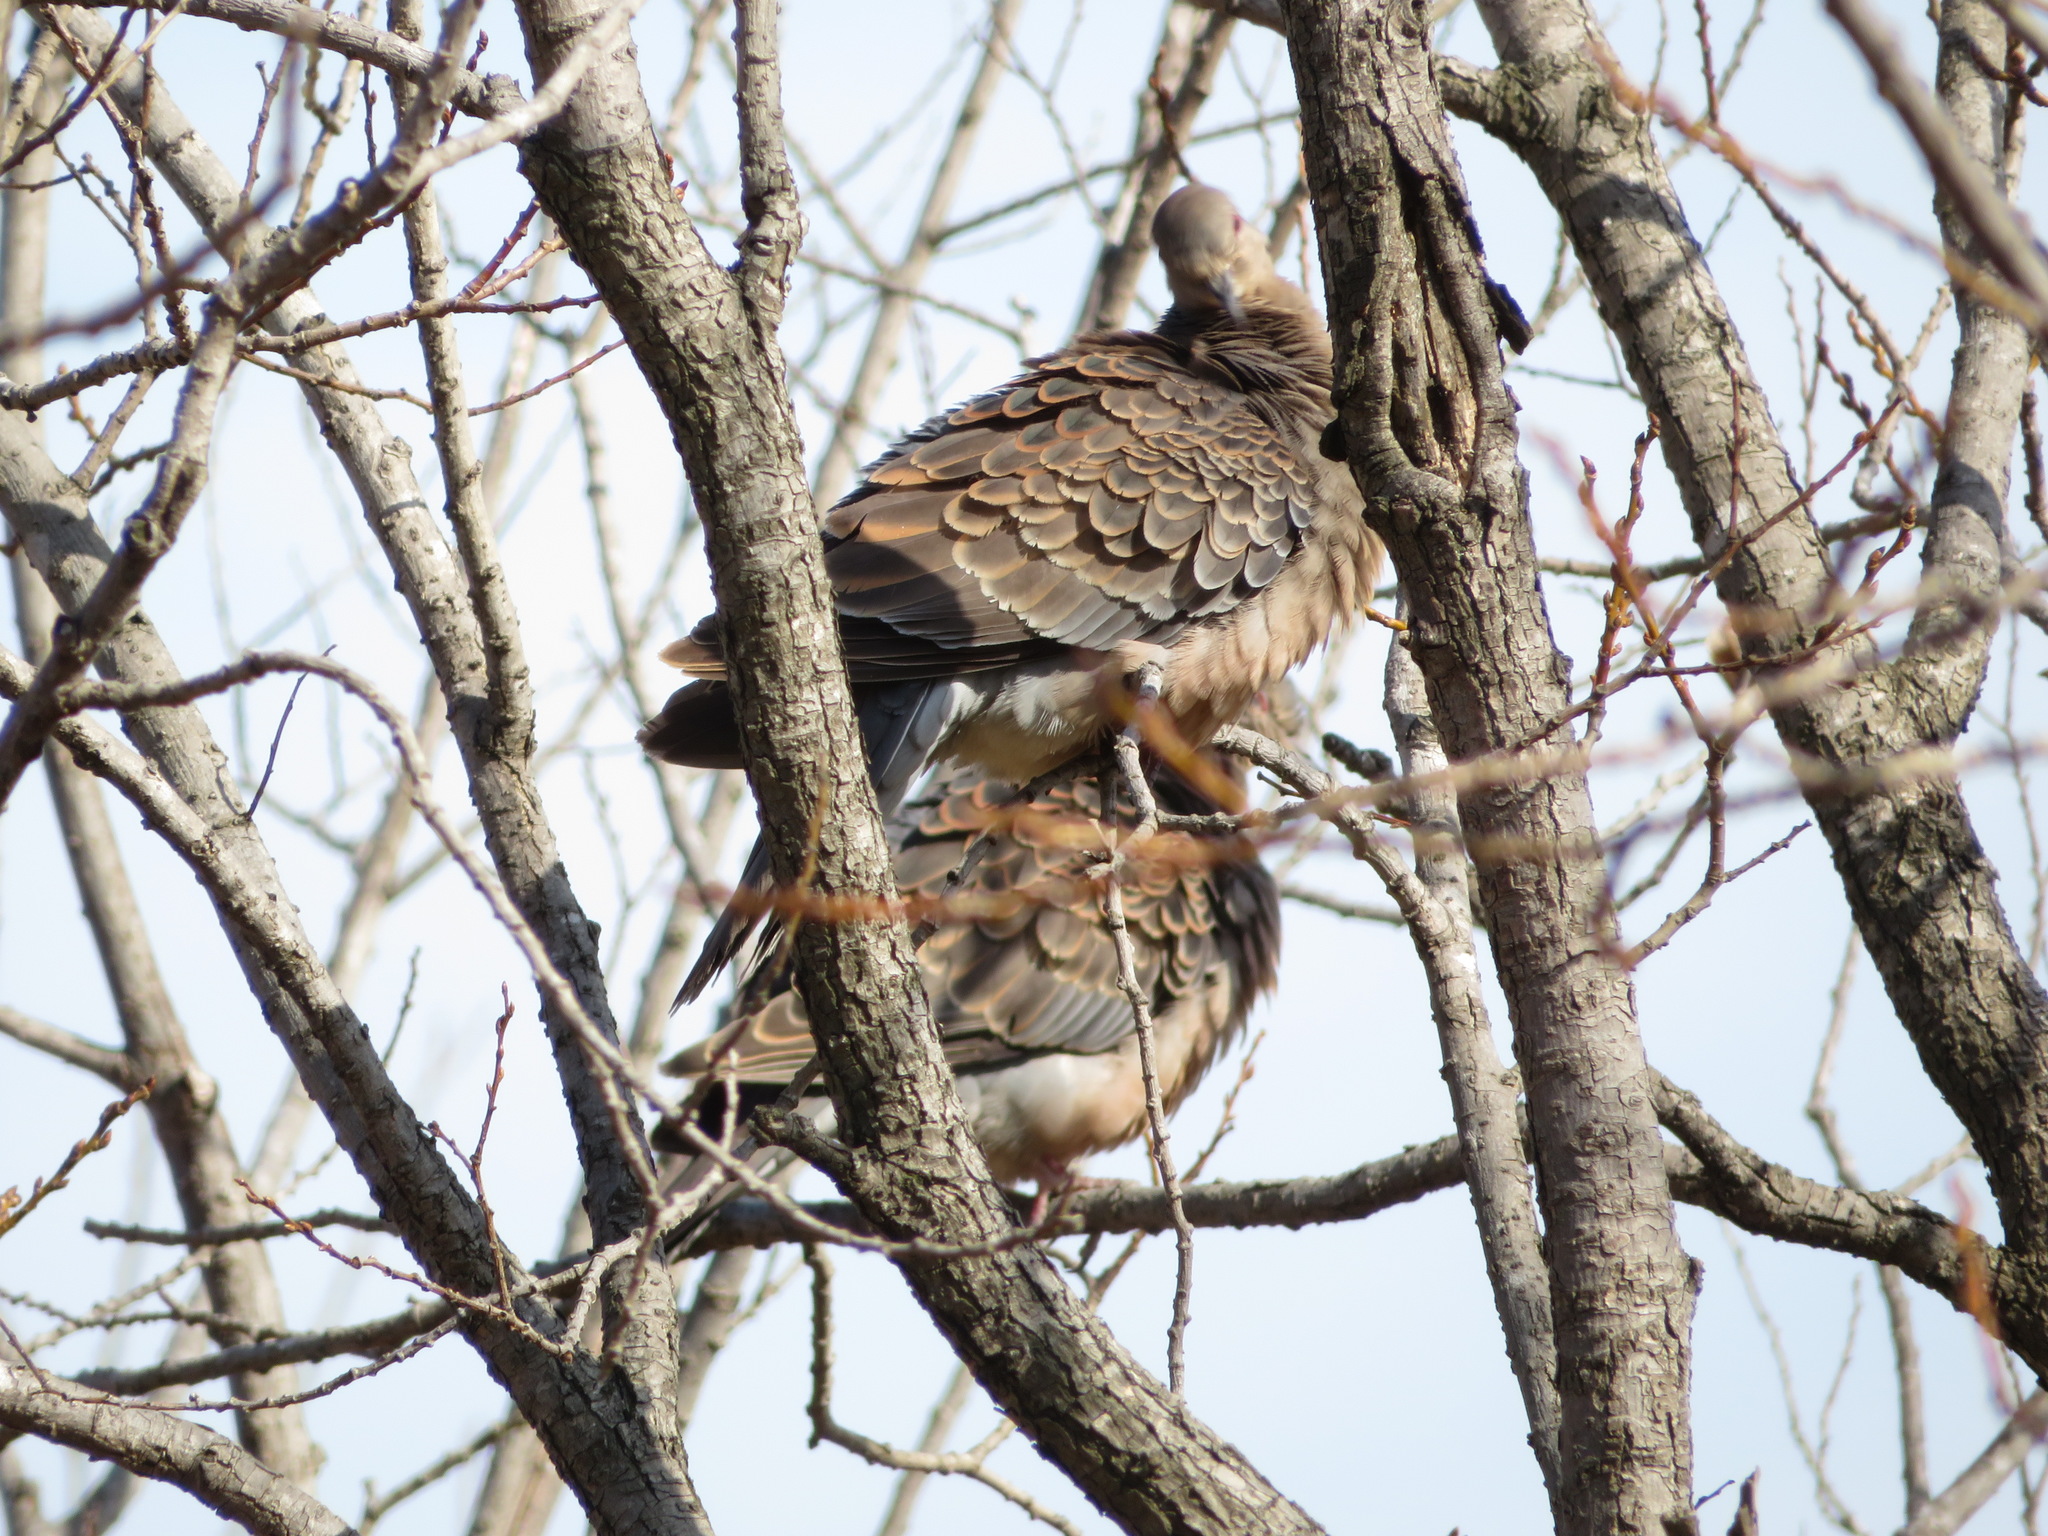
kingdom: Animalia
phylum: Chordata
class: Aves
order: Columbiformes
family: Columbidae
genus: Streptopelia
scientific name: Streptopelia orientalis
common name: Oriental turtle dove
